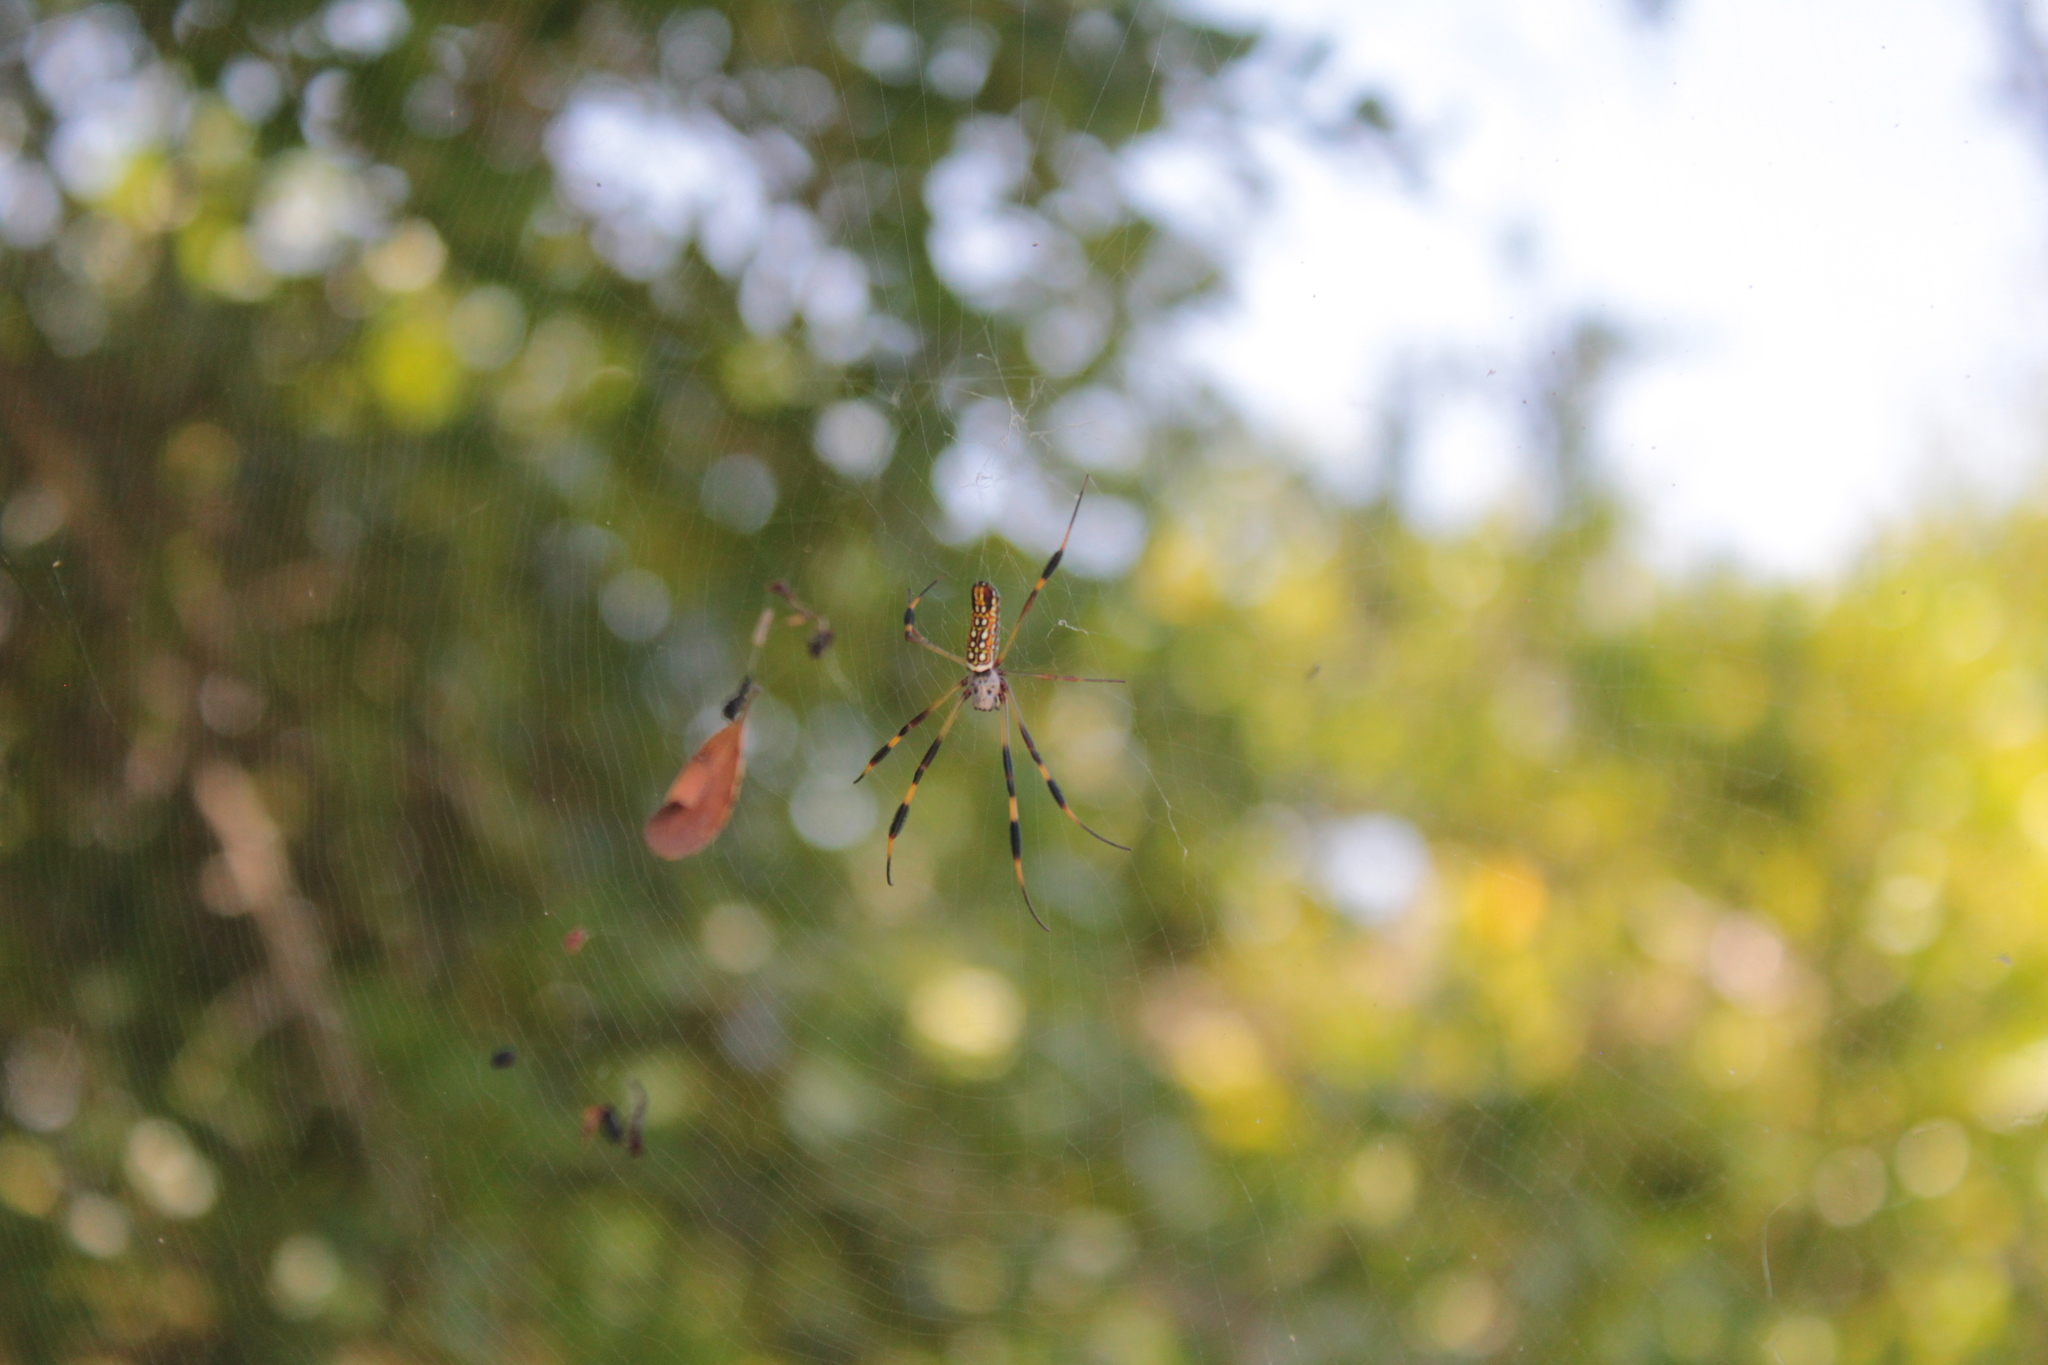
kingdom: Animalia
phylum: Arthropoda
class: Arachnida
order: Araneae
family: Araneidae
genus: Trichonephila
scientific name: Trichonephila clavipes
